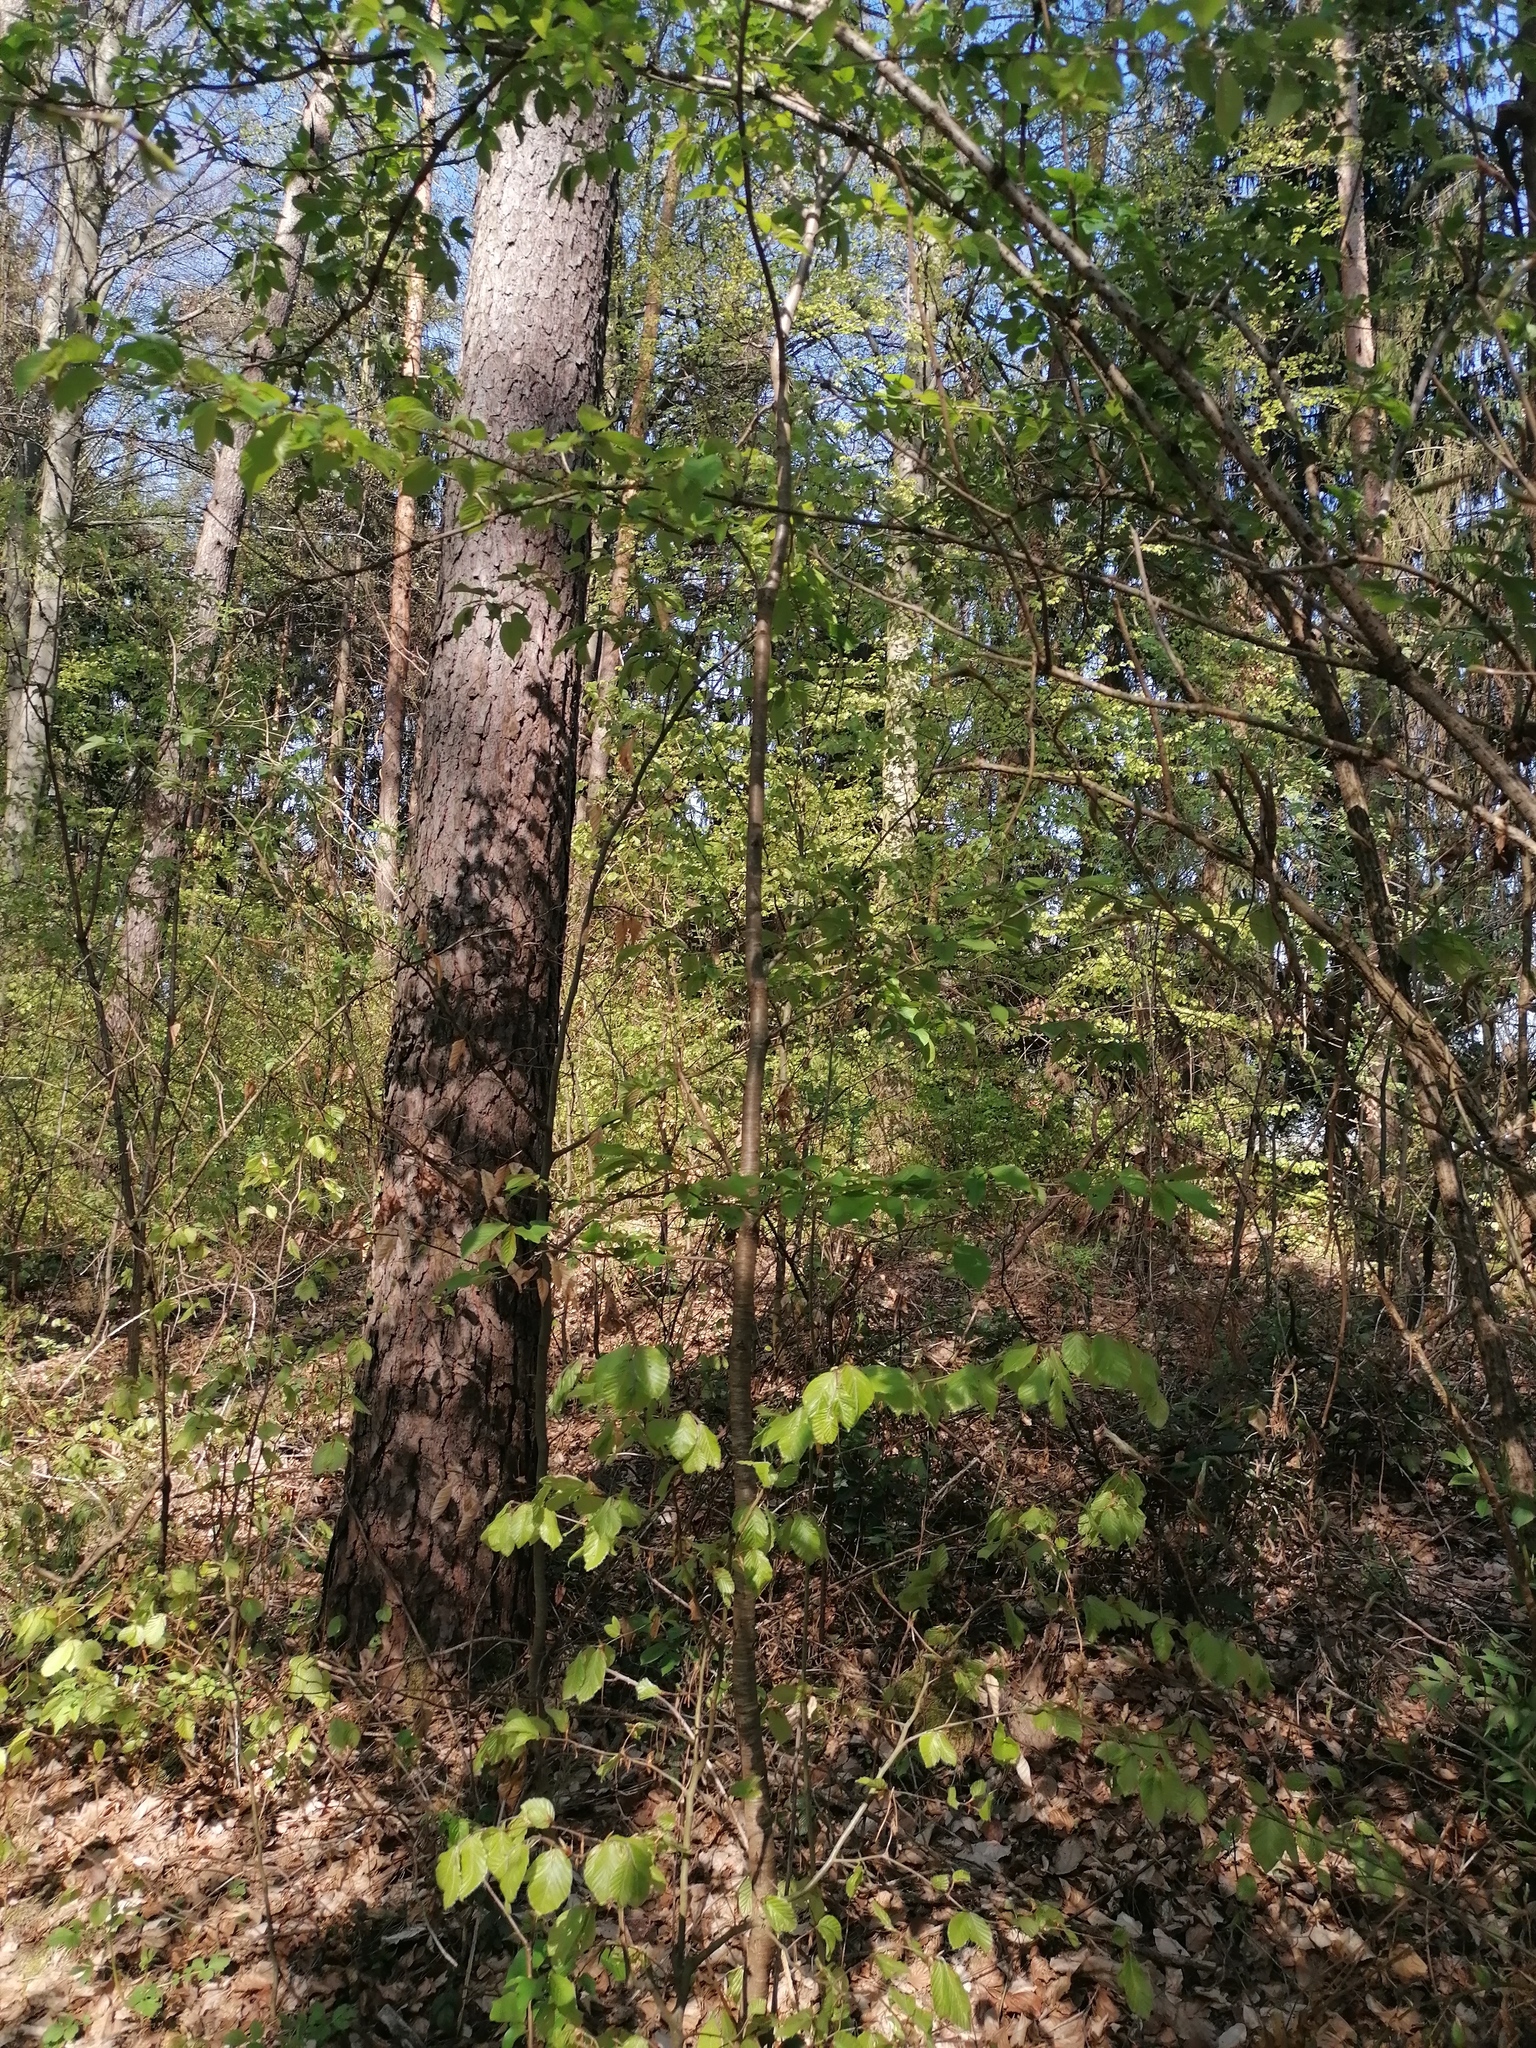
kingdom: Plantae
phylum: Tracheophyta
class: Magnoliopsida
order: Rosales
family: Rosaceae
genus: Prunus
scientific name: Prunus avium
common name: Sweet cherry
